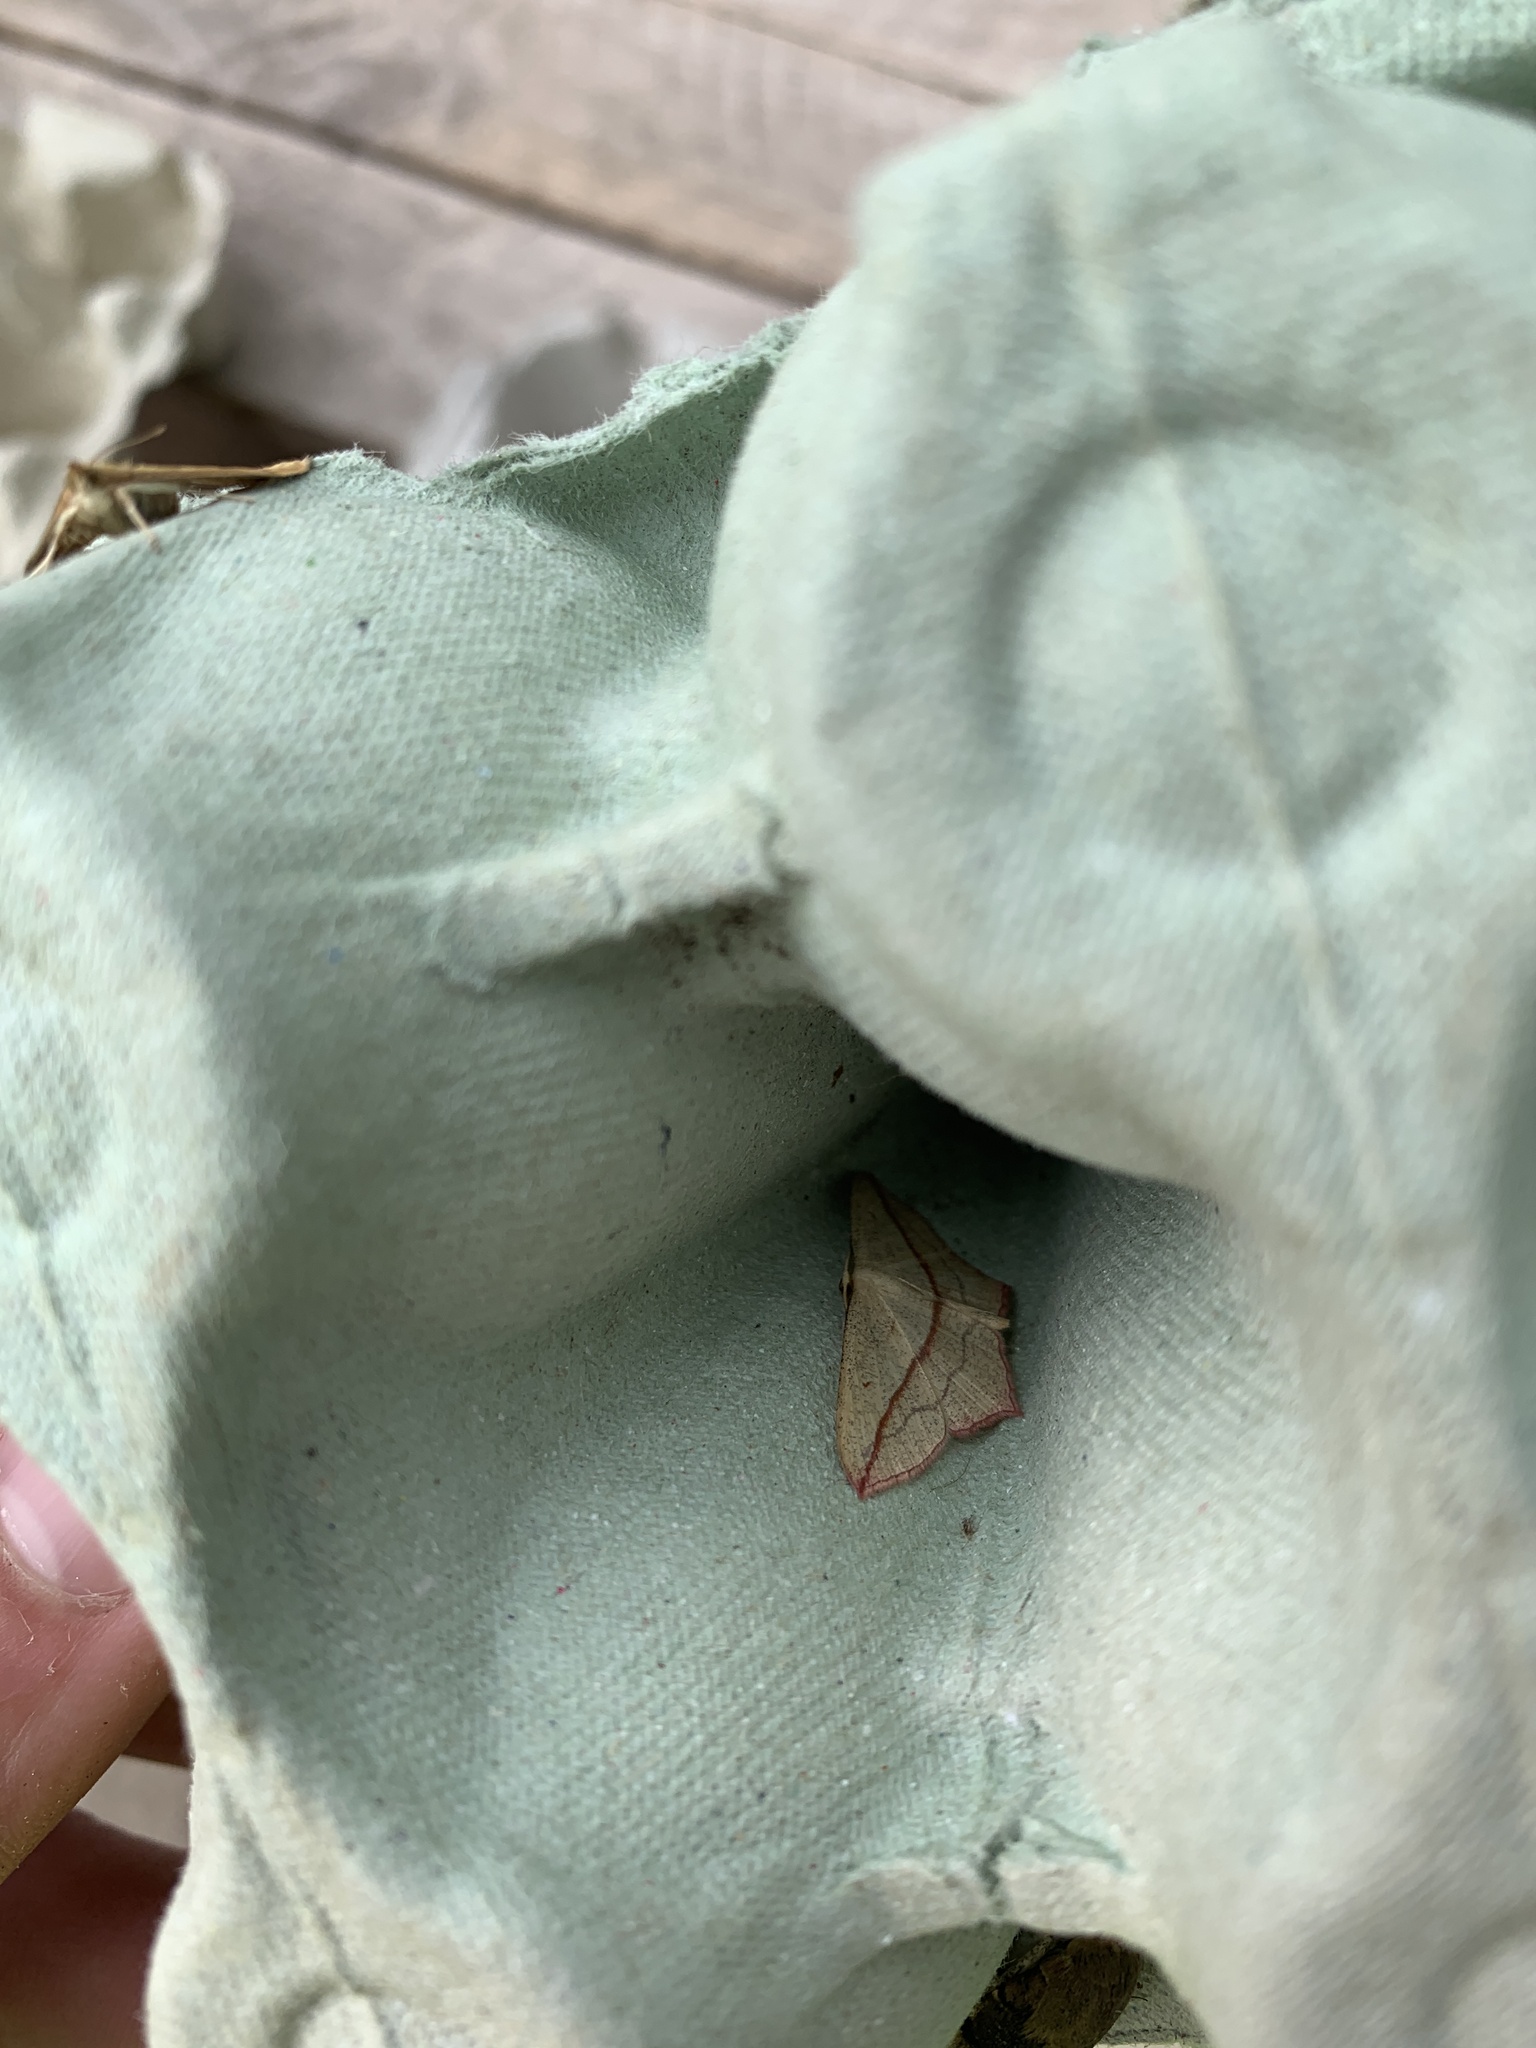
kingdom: Animalia
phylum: Arthropoda
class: Insecta
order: Lepidoptera
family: Geometridae
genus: Timandra
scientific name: Timandra comae
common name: Blood-vein
